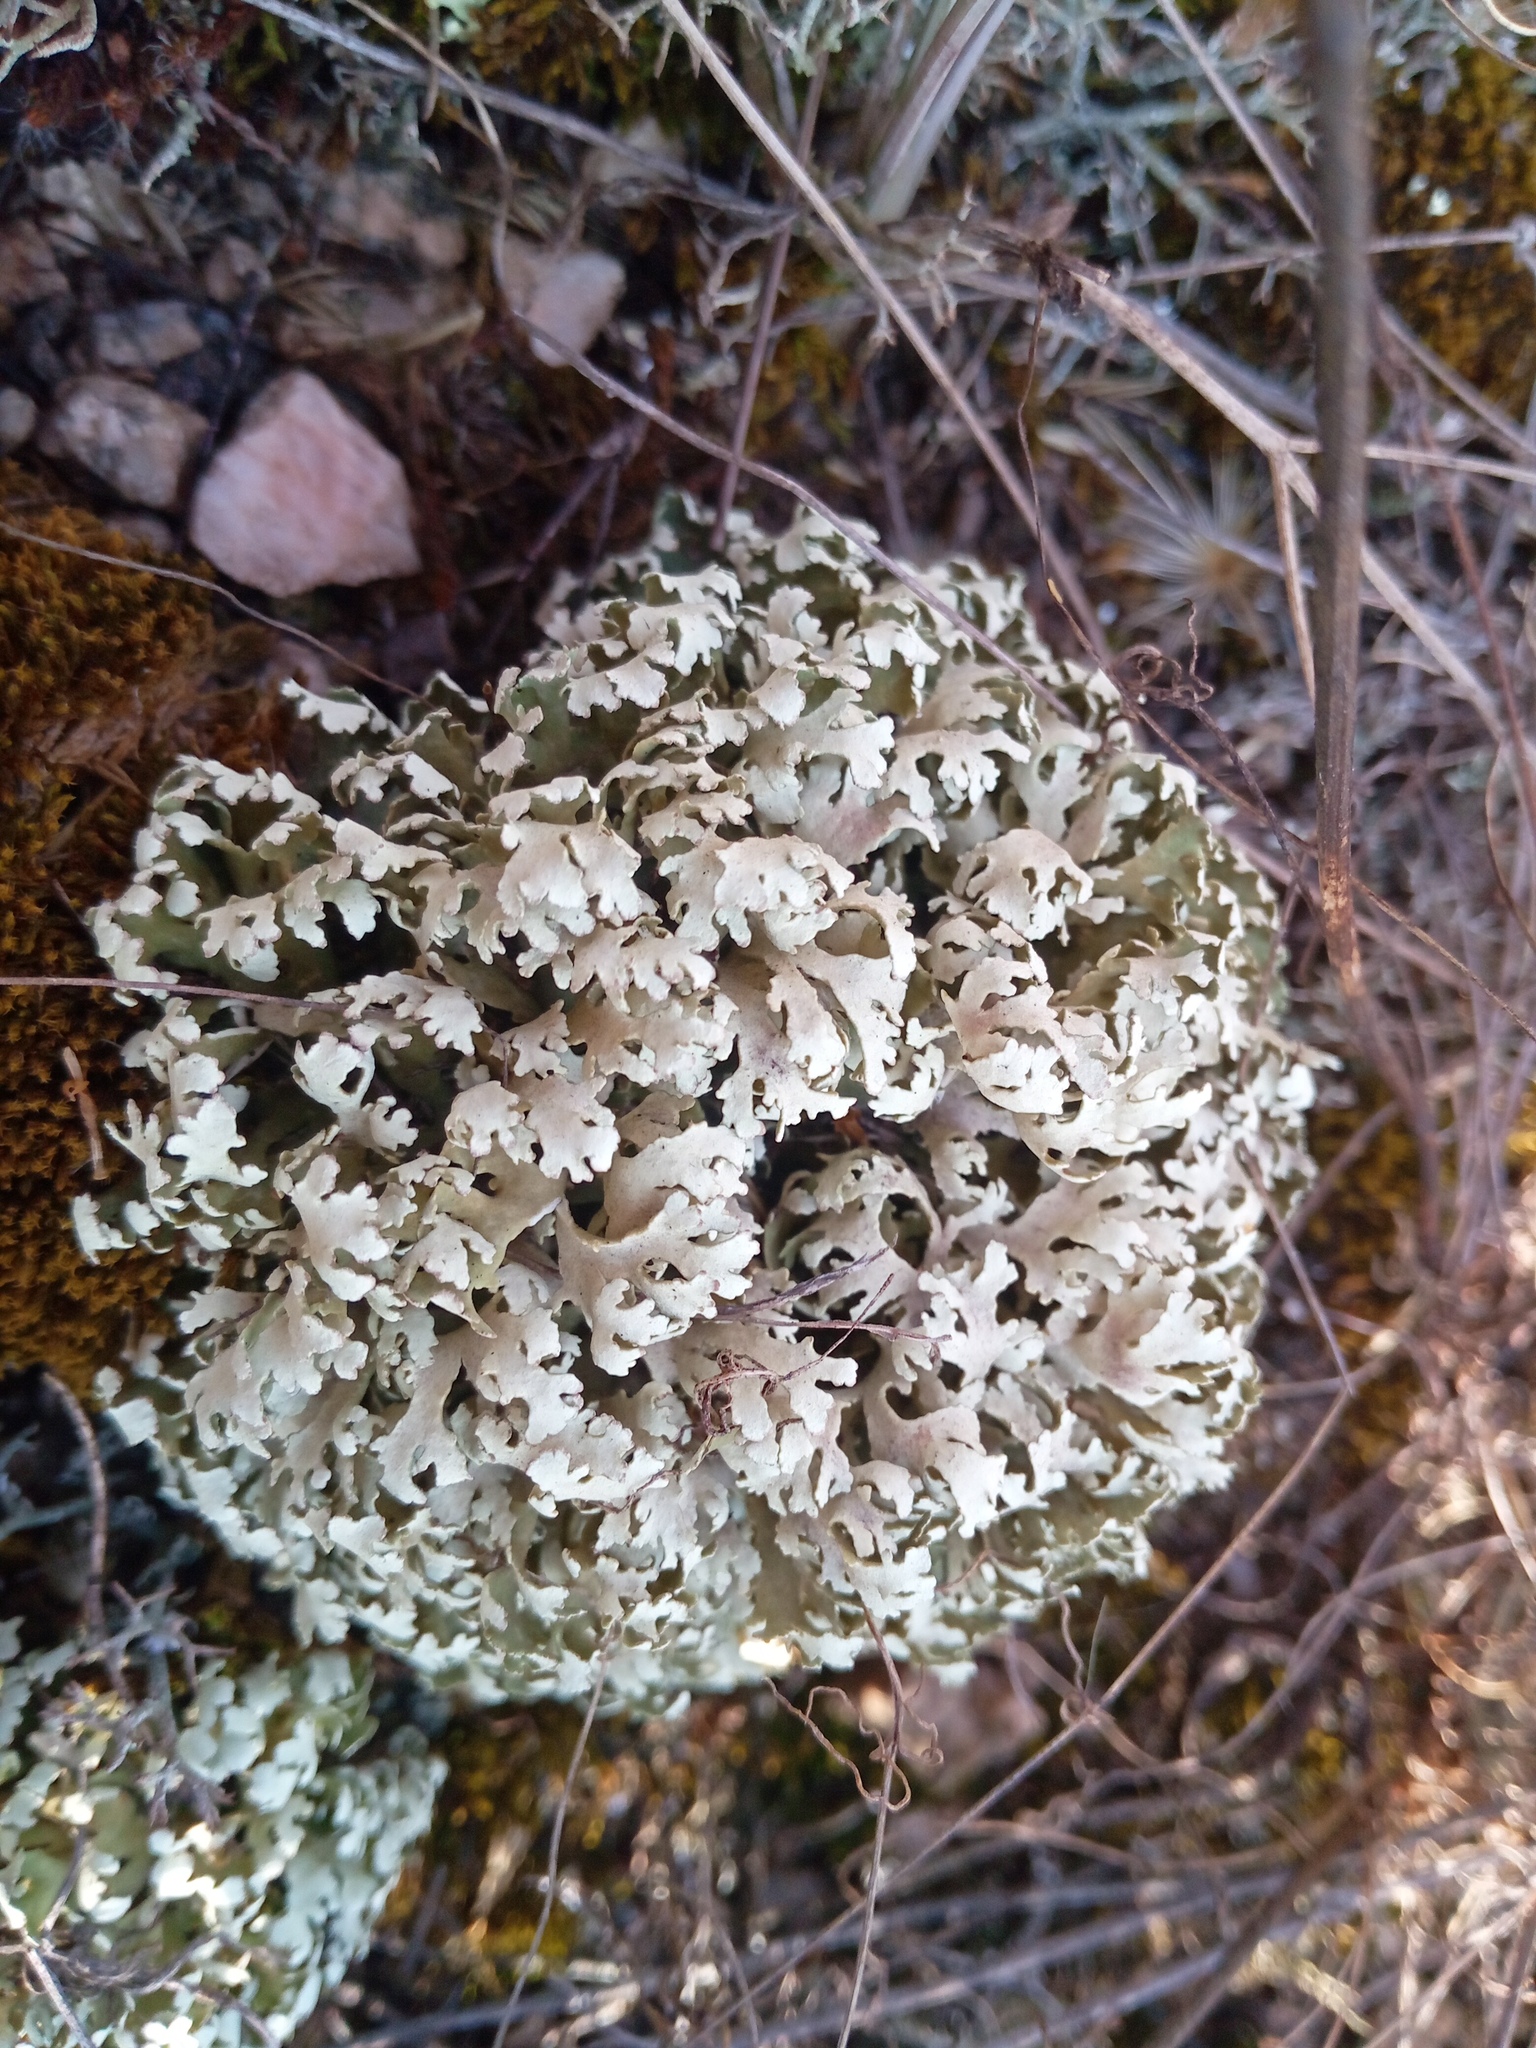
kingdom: Fungi
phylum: Ascomycota
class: Lecanoromycetes
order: Lecanorales
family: Cladoniaceae
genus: Cladonia
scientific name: Cladonia foliacea
